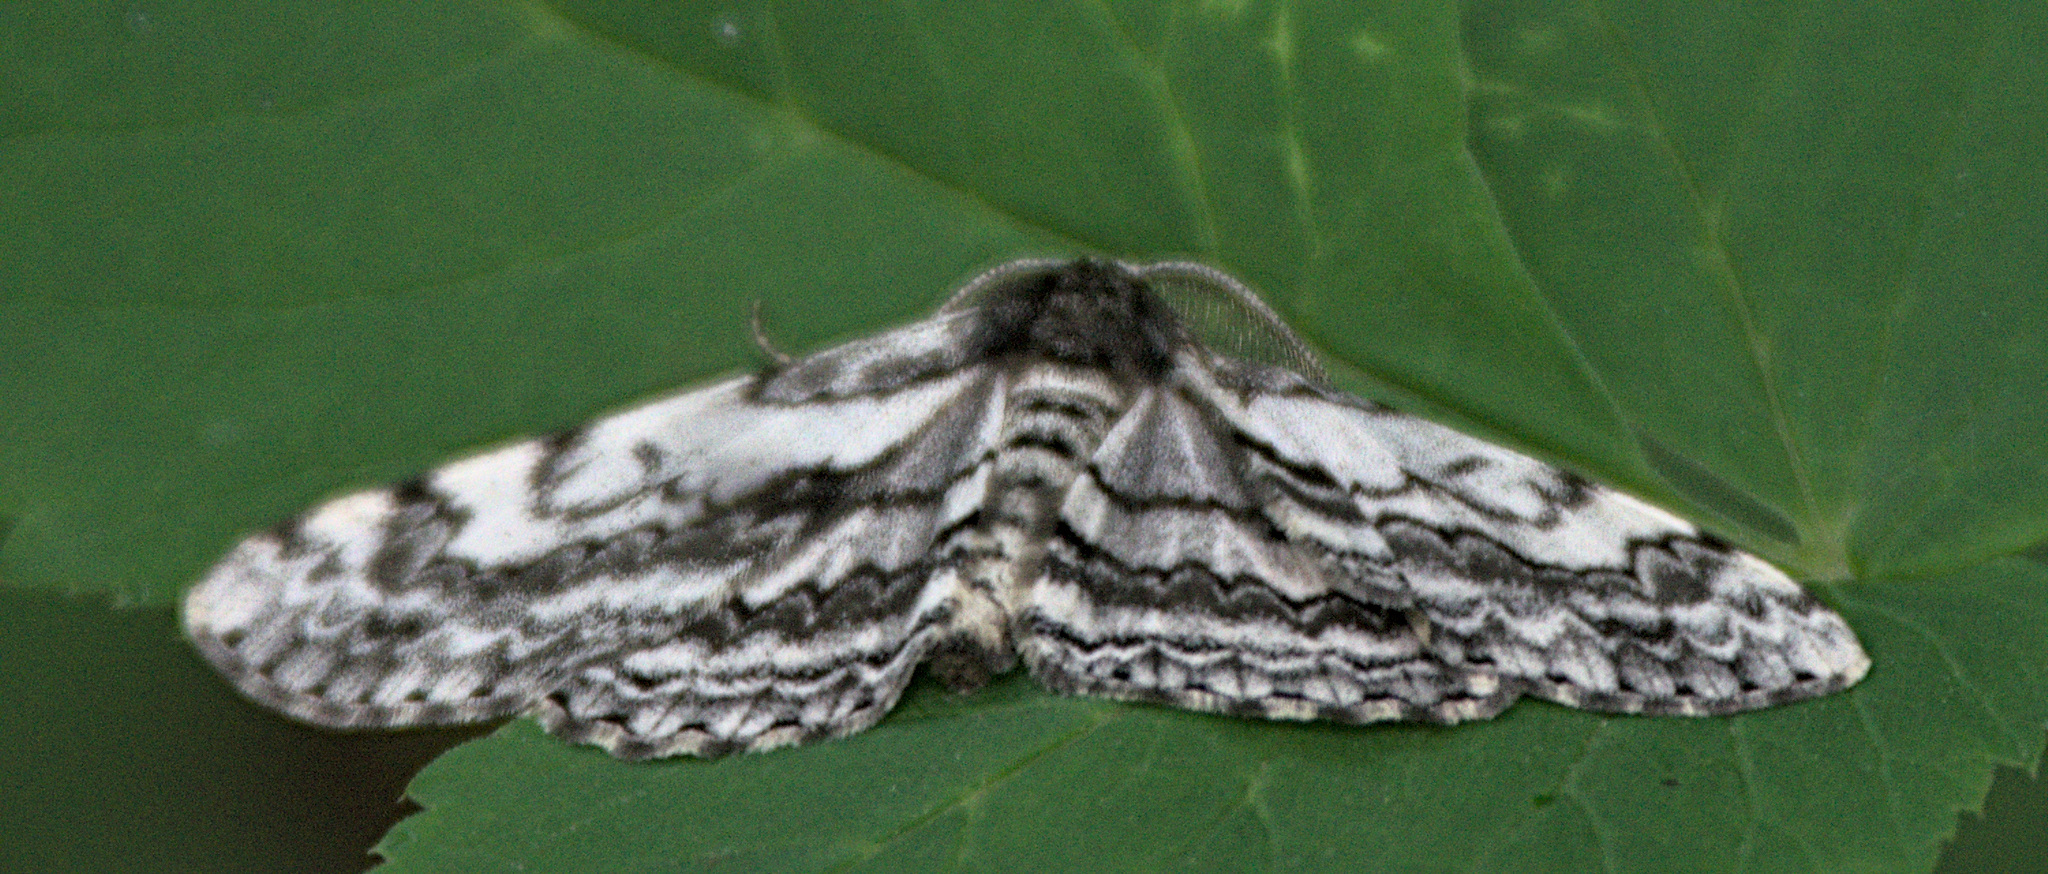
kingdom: Animalia
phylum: Arthropoda
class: Insecta
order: Lepidoptera
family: Geometridae
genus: Hypomecis
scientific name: Hypomecis roboraria
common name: Great oak beauty
